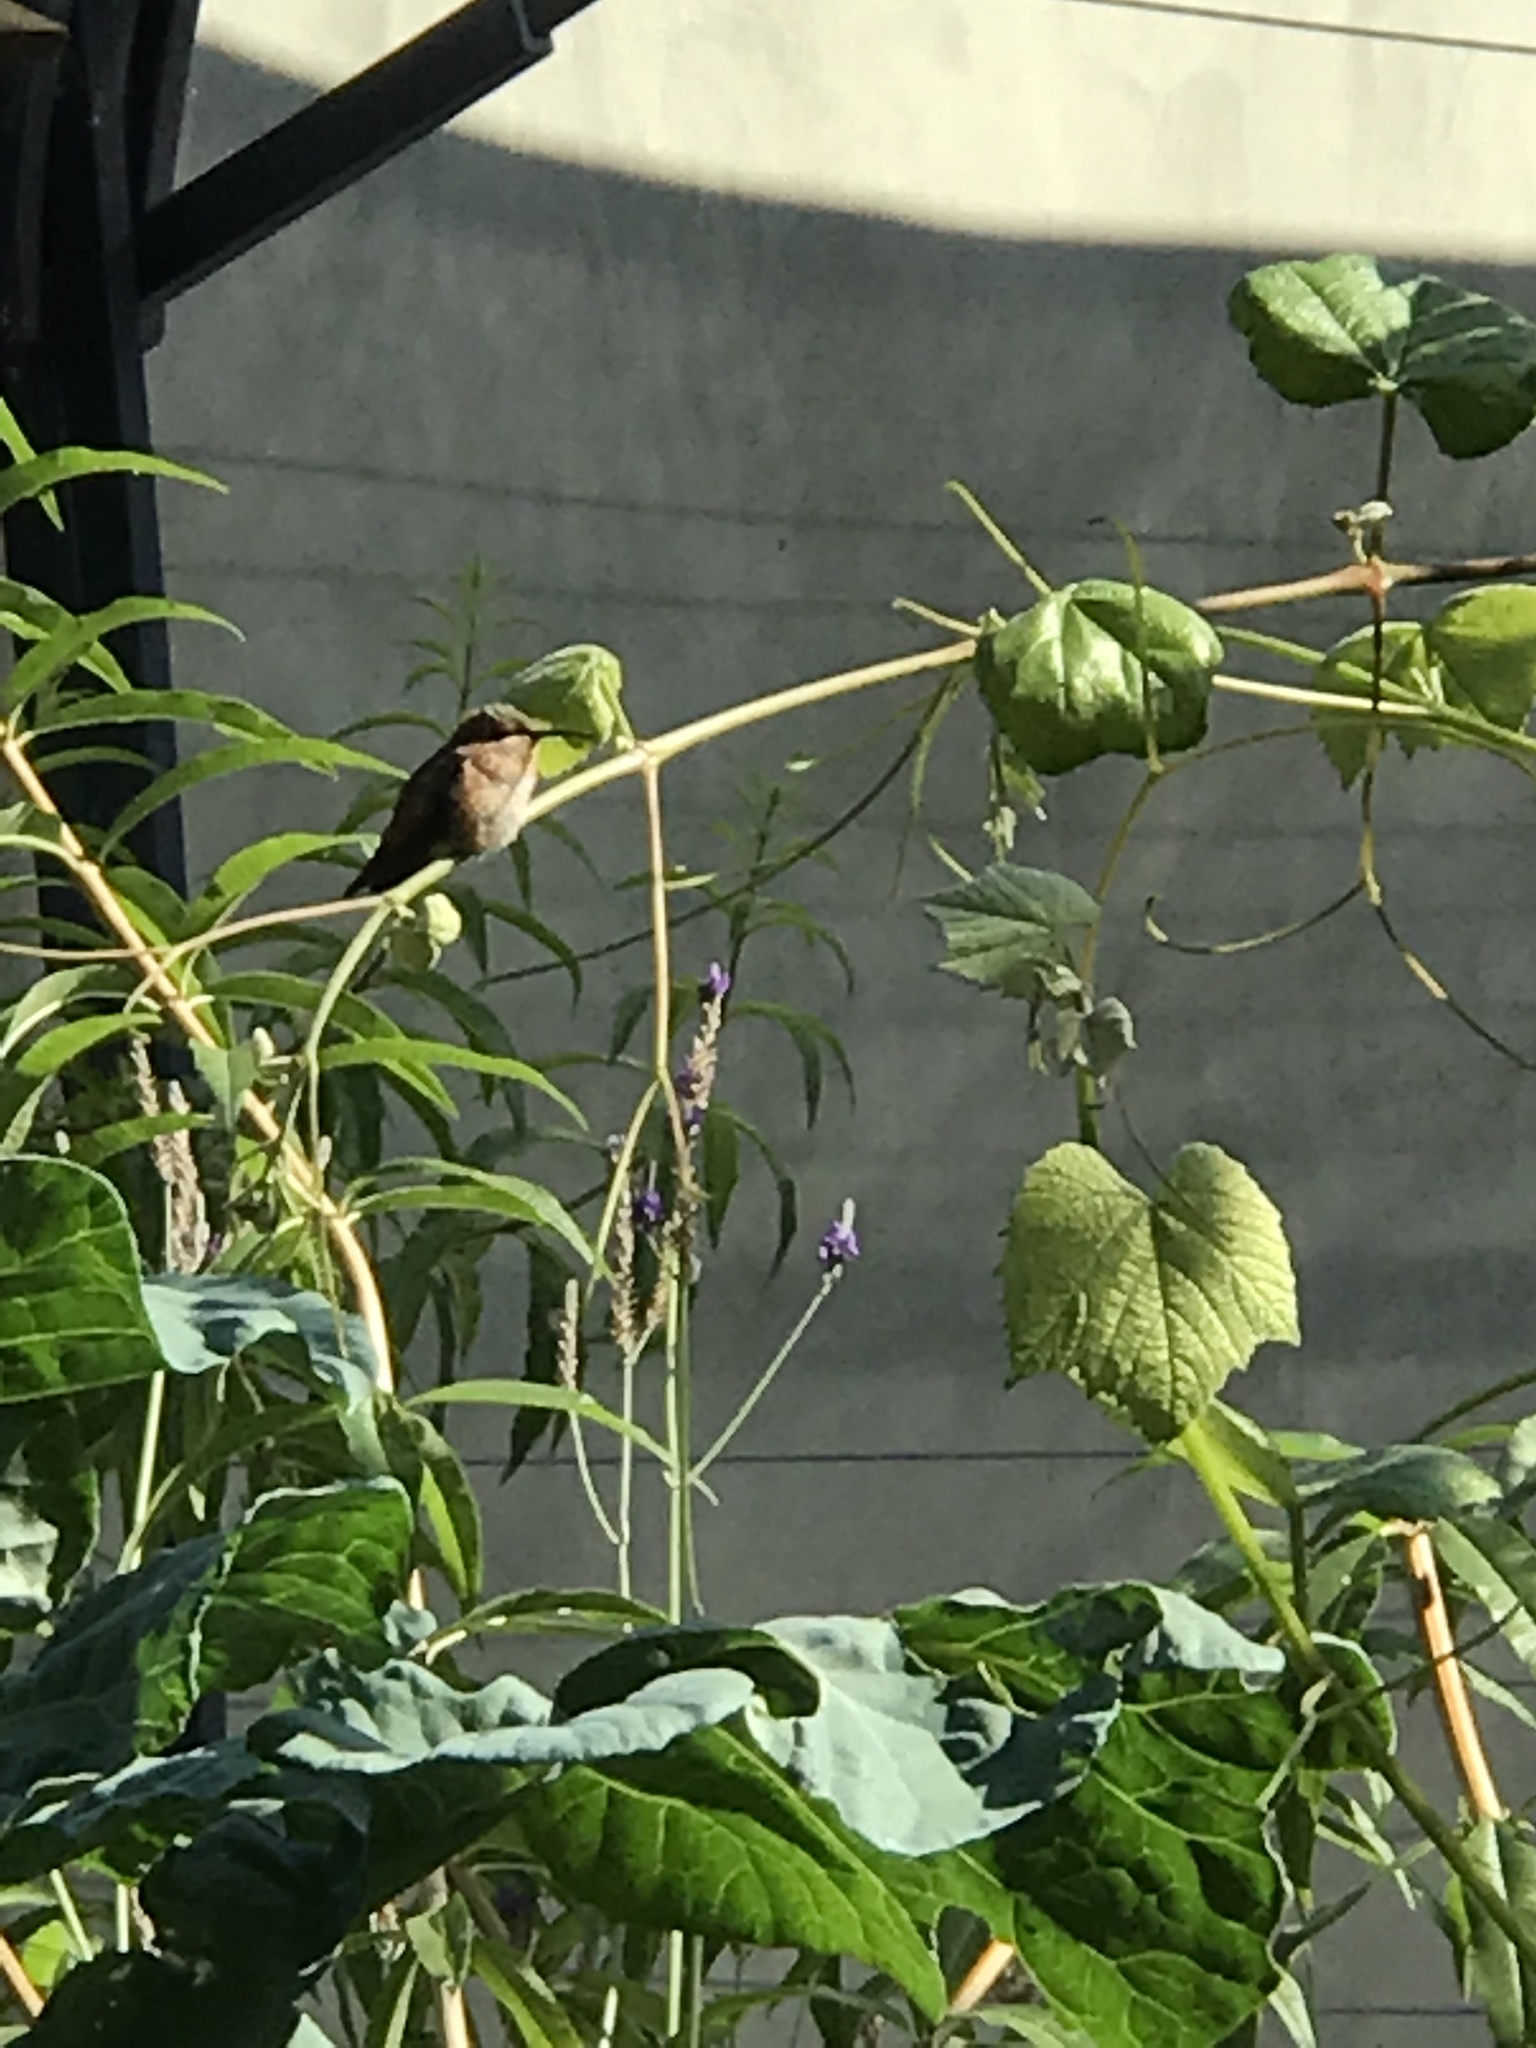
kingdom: Animalia
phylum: Chordata
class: Aves
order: Apodiformes
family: Trochilidae
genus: Selasphorus
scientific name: Selasphorus
